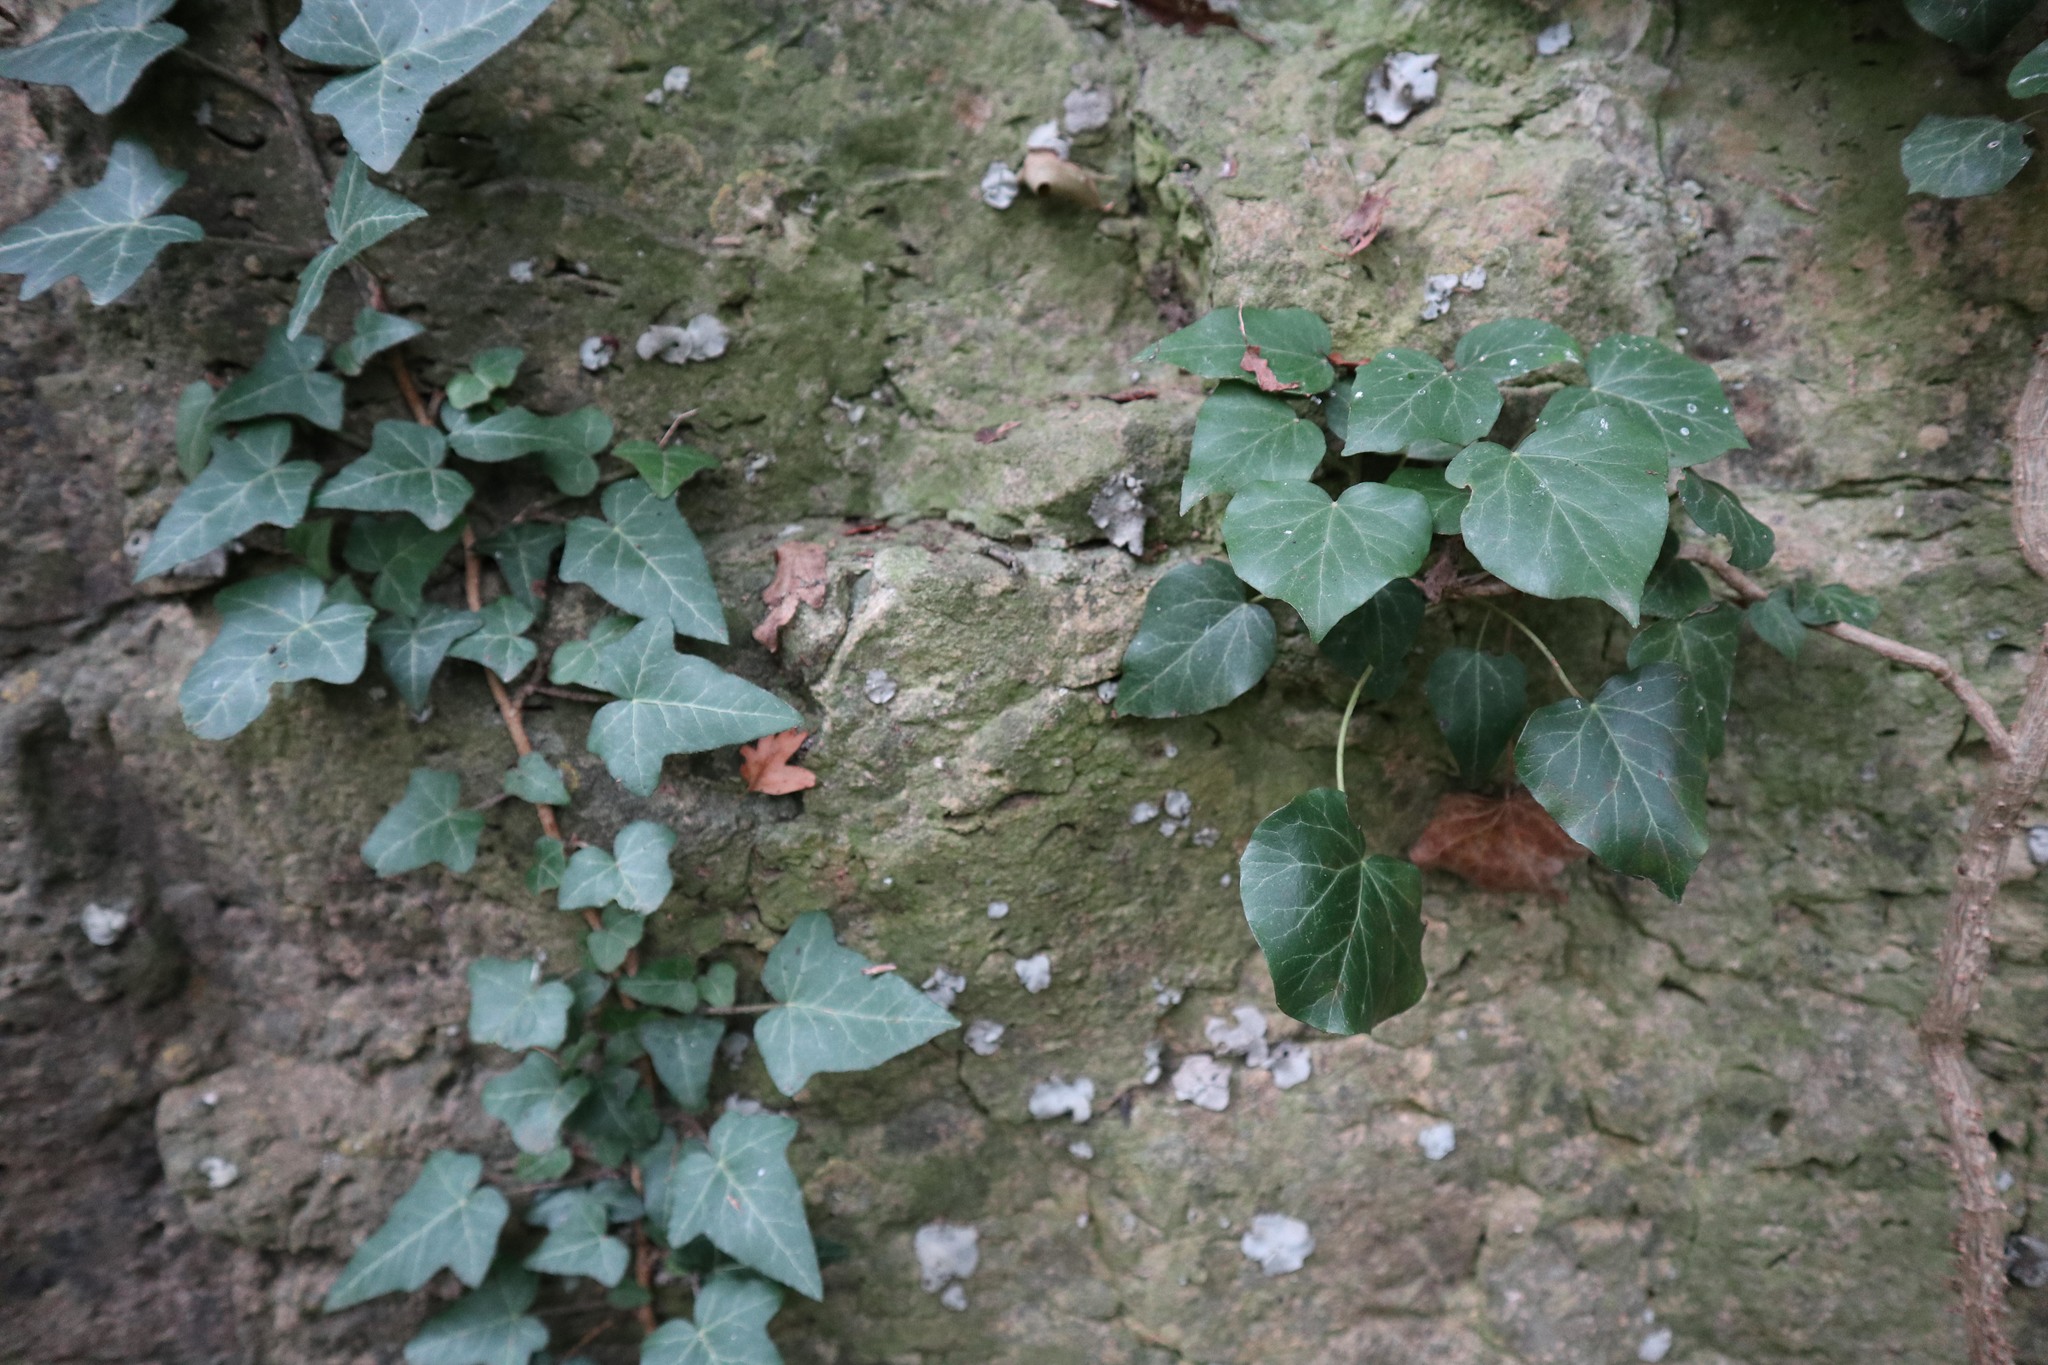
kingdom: Plantae
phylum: Tracheophyta
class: Magnoliopsida
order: Apiales
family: Araliaceae
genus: Hedera
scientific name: Hedera helix
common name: Ivy
